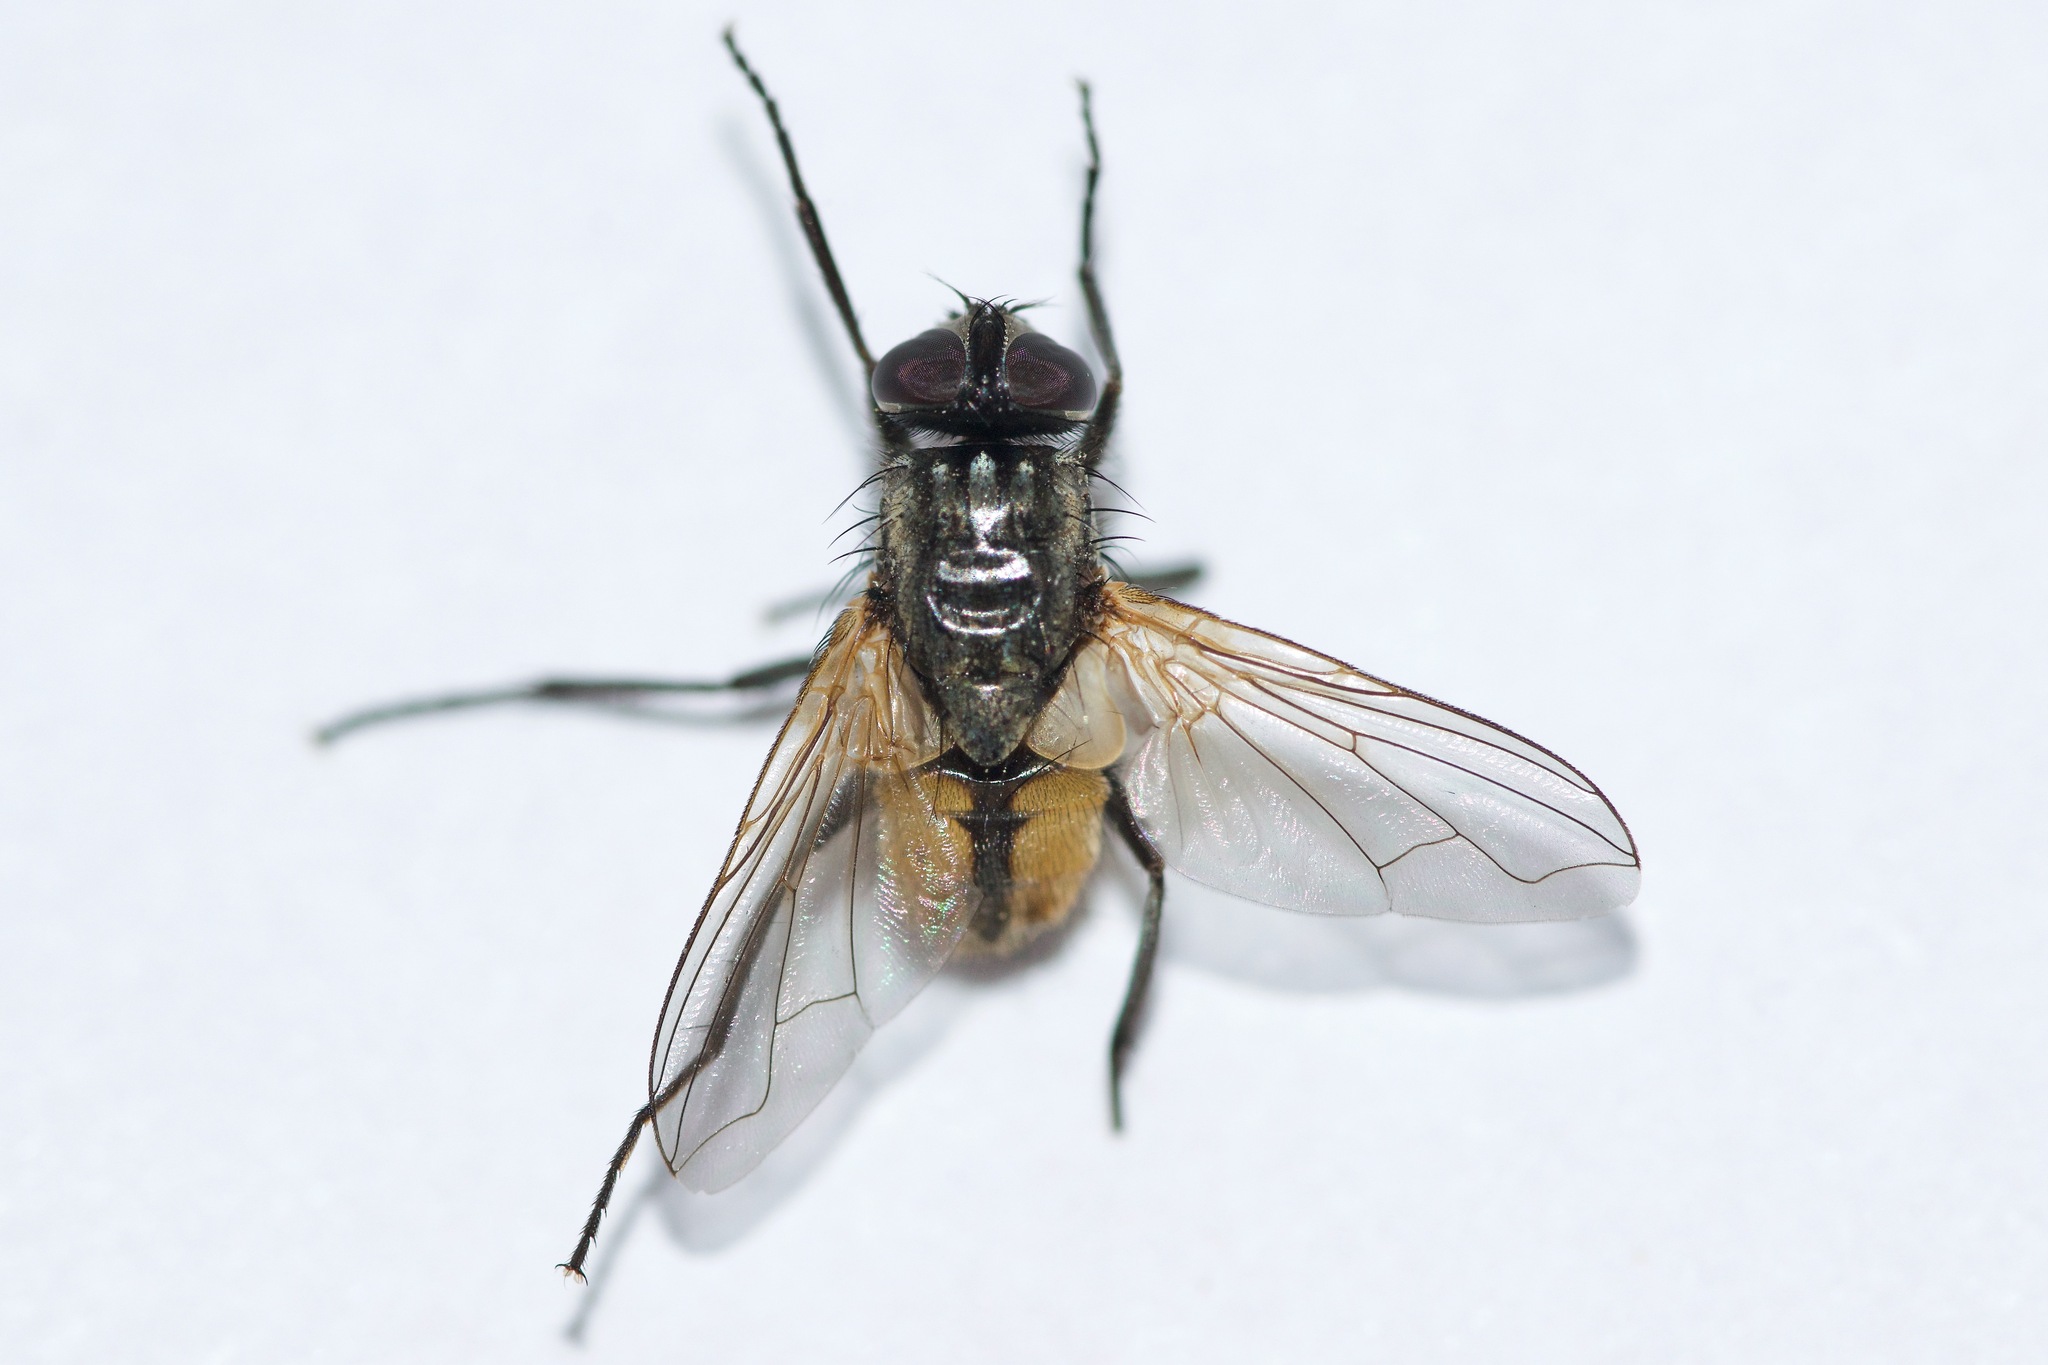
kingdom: Animalia
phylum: Arthropoda
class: Insecta
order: Diptera
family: Muscidae
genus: Musca
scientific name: Musca domestica
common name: House fly
